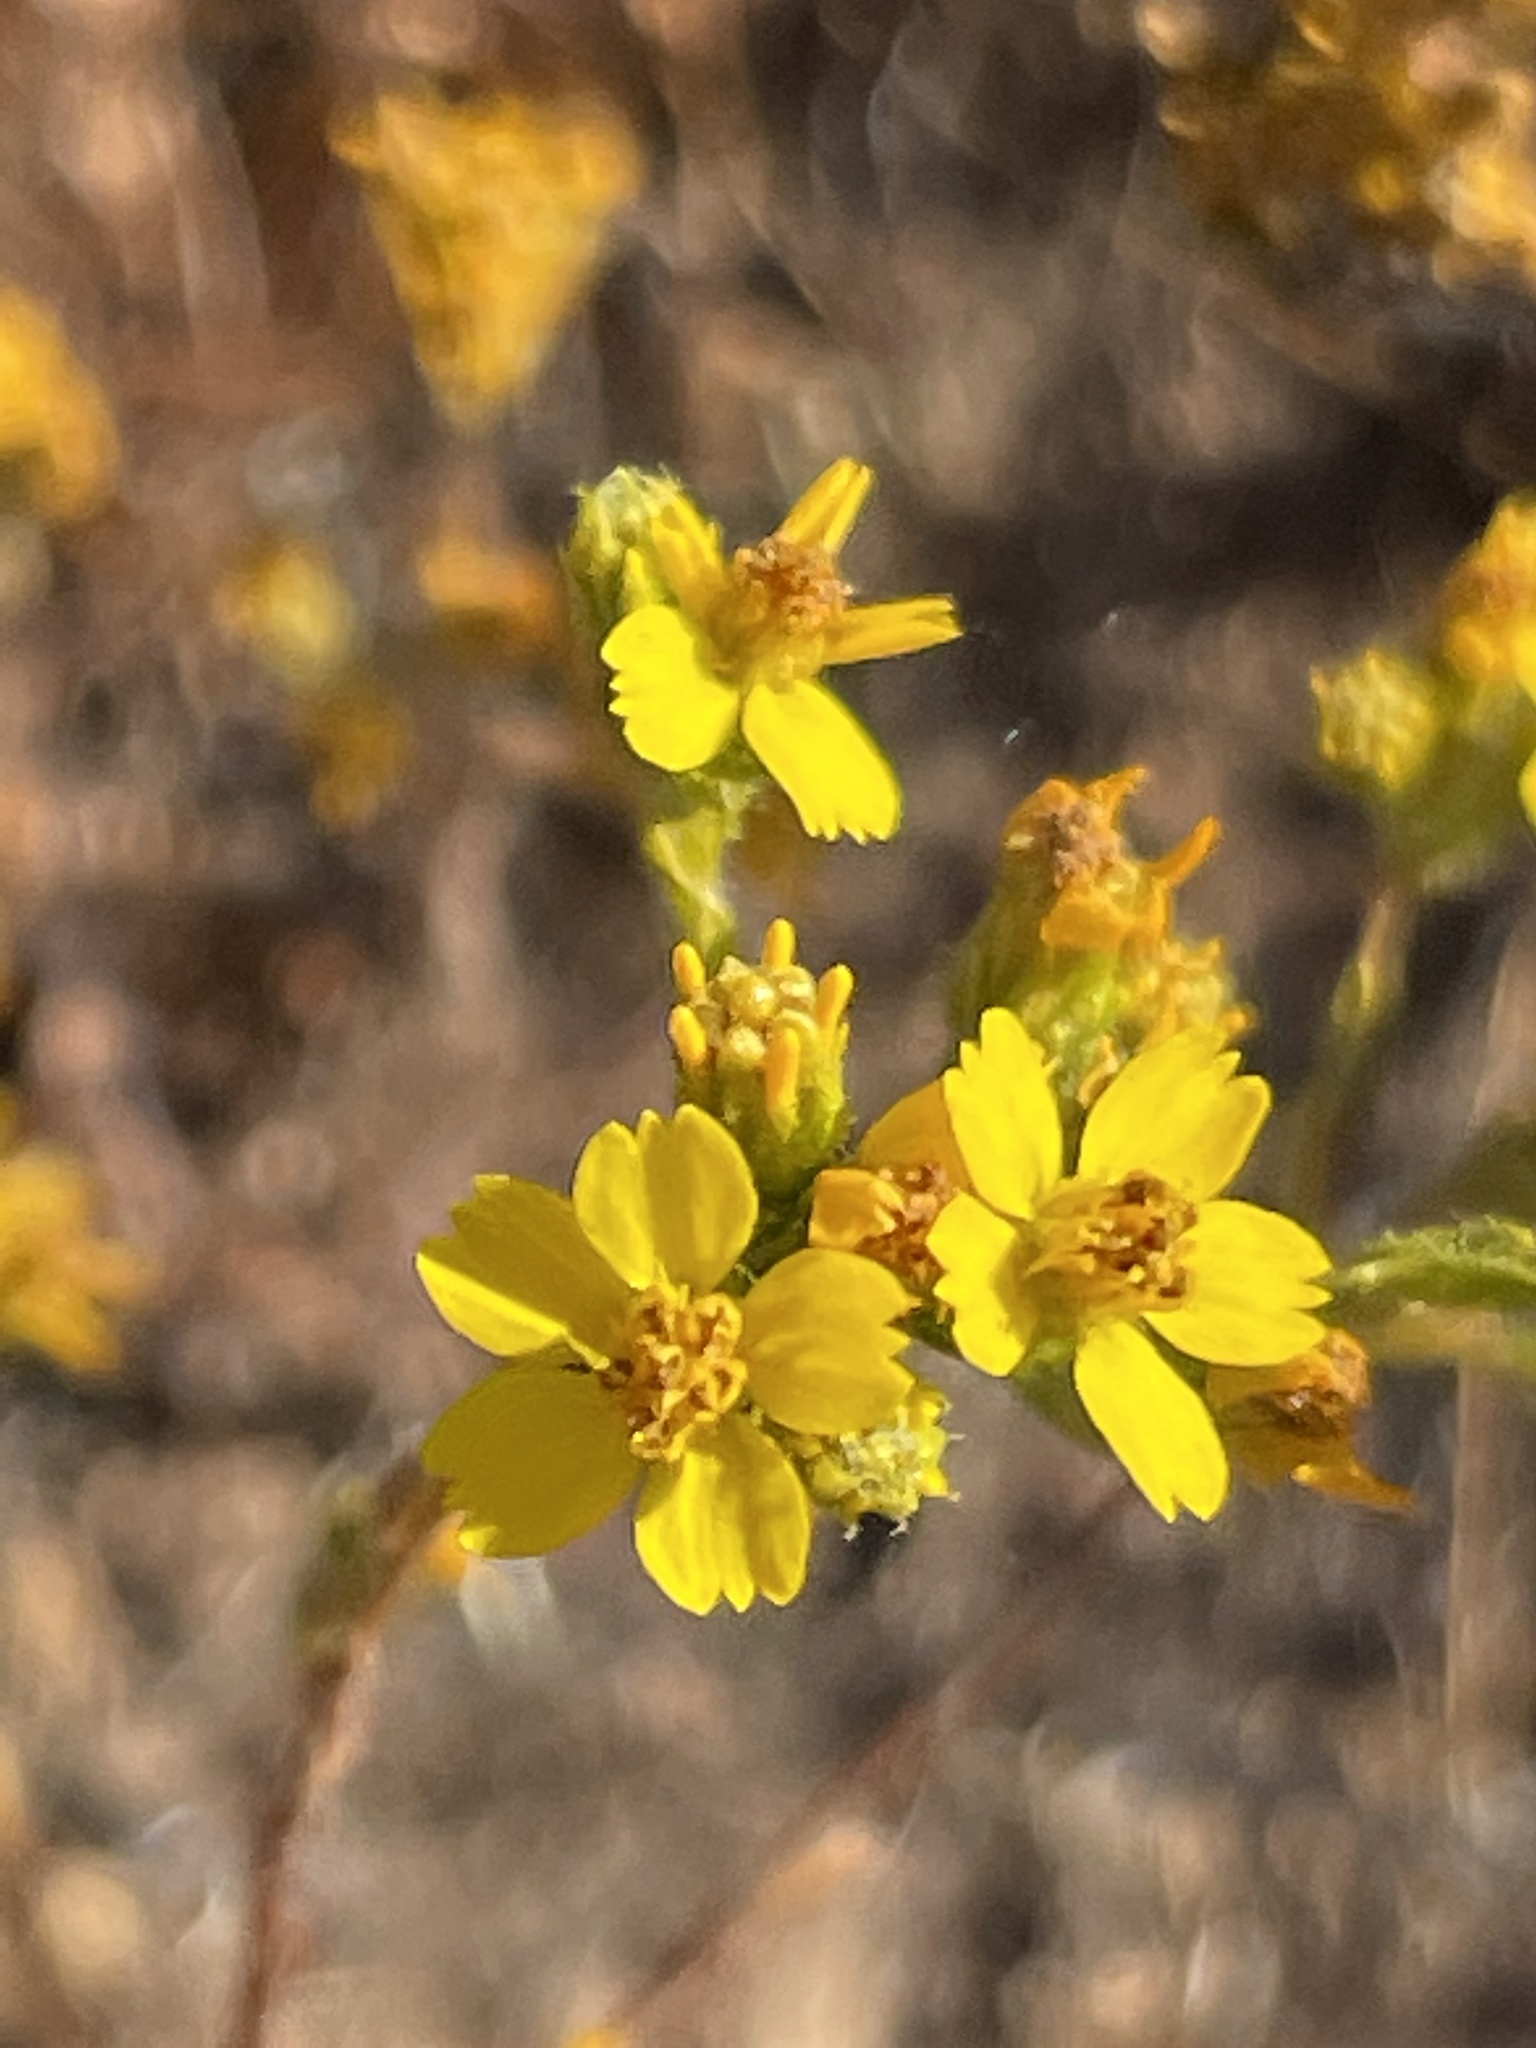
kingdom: Plantae
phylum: Tracheophyta
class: Magnoliopsida
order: Asterales
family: Asteraceae
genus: Deinandra
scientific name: Deinandra fasciculata
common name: Clustered tarweed
